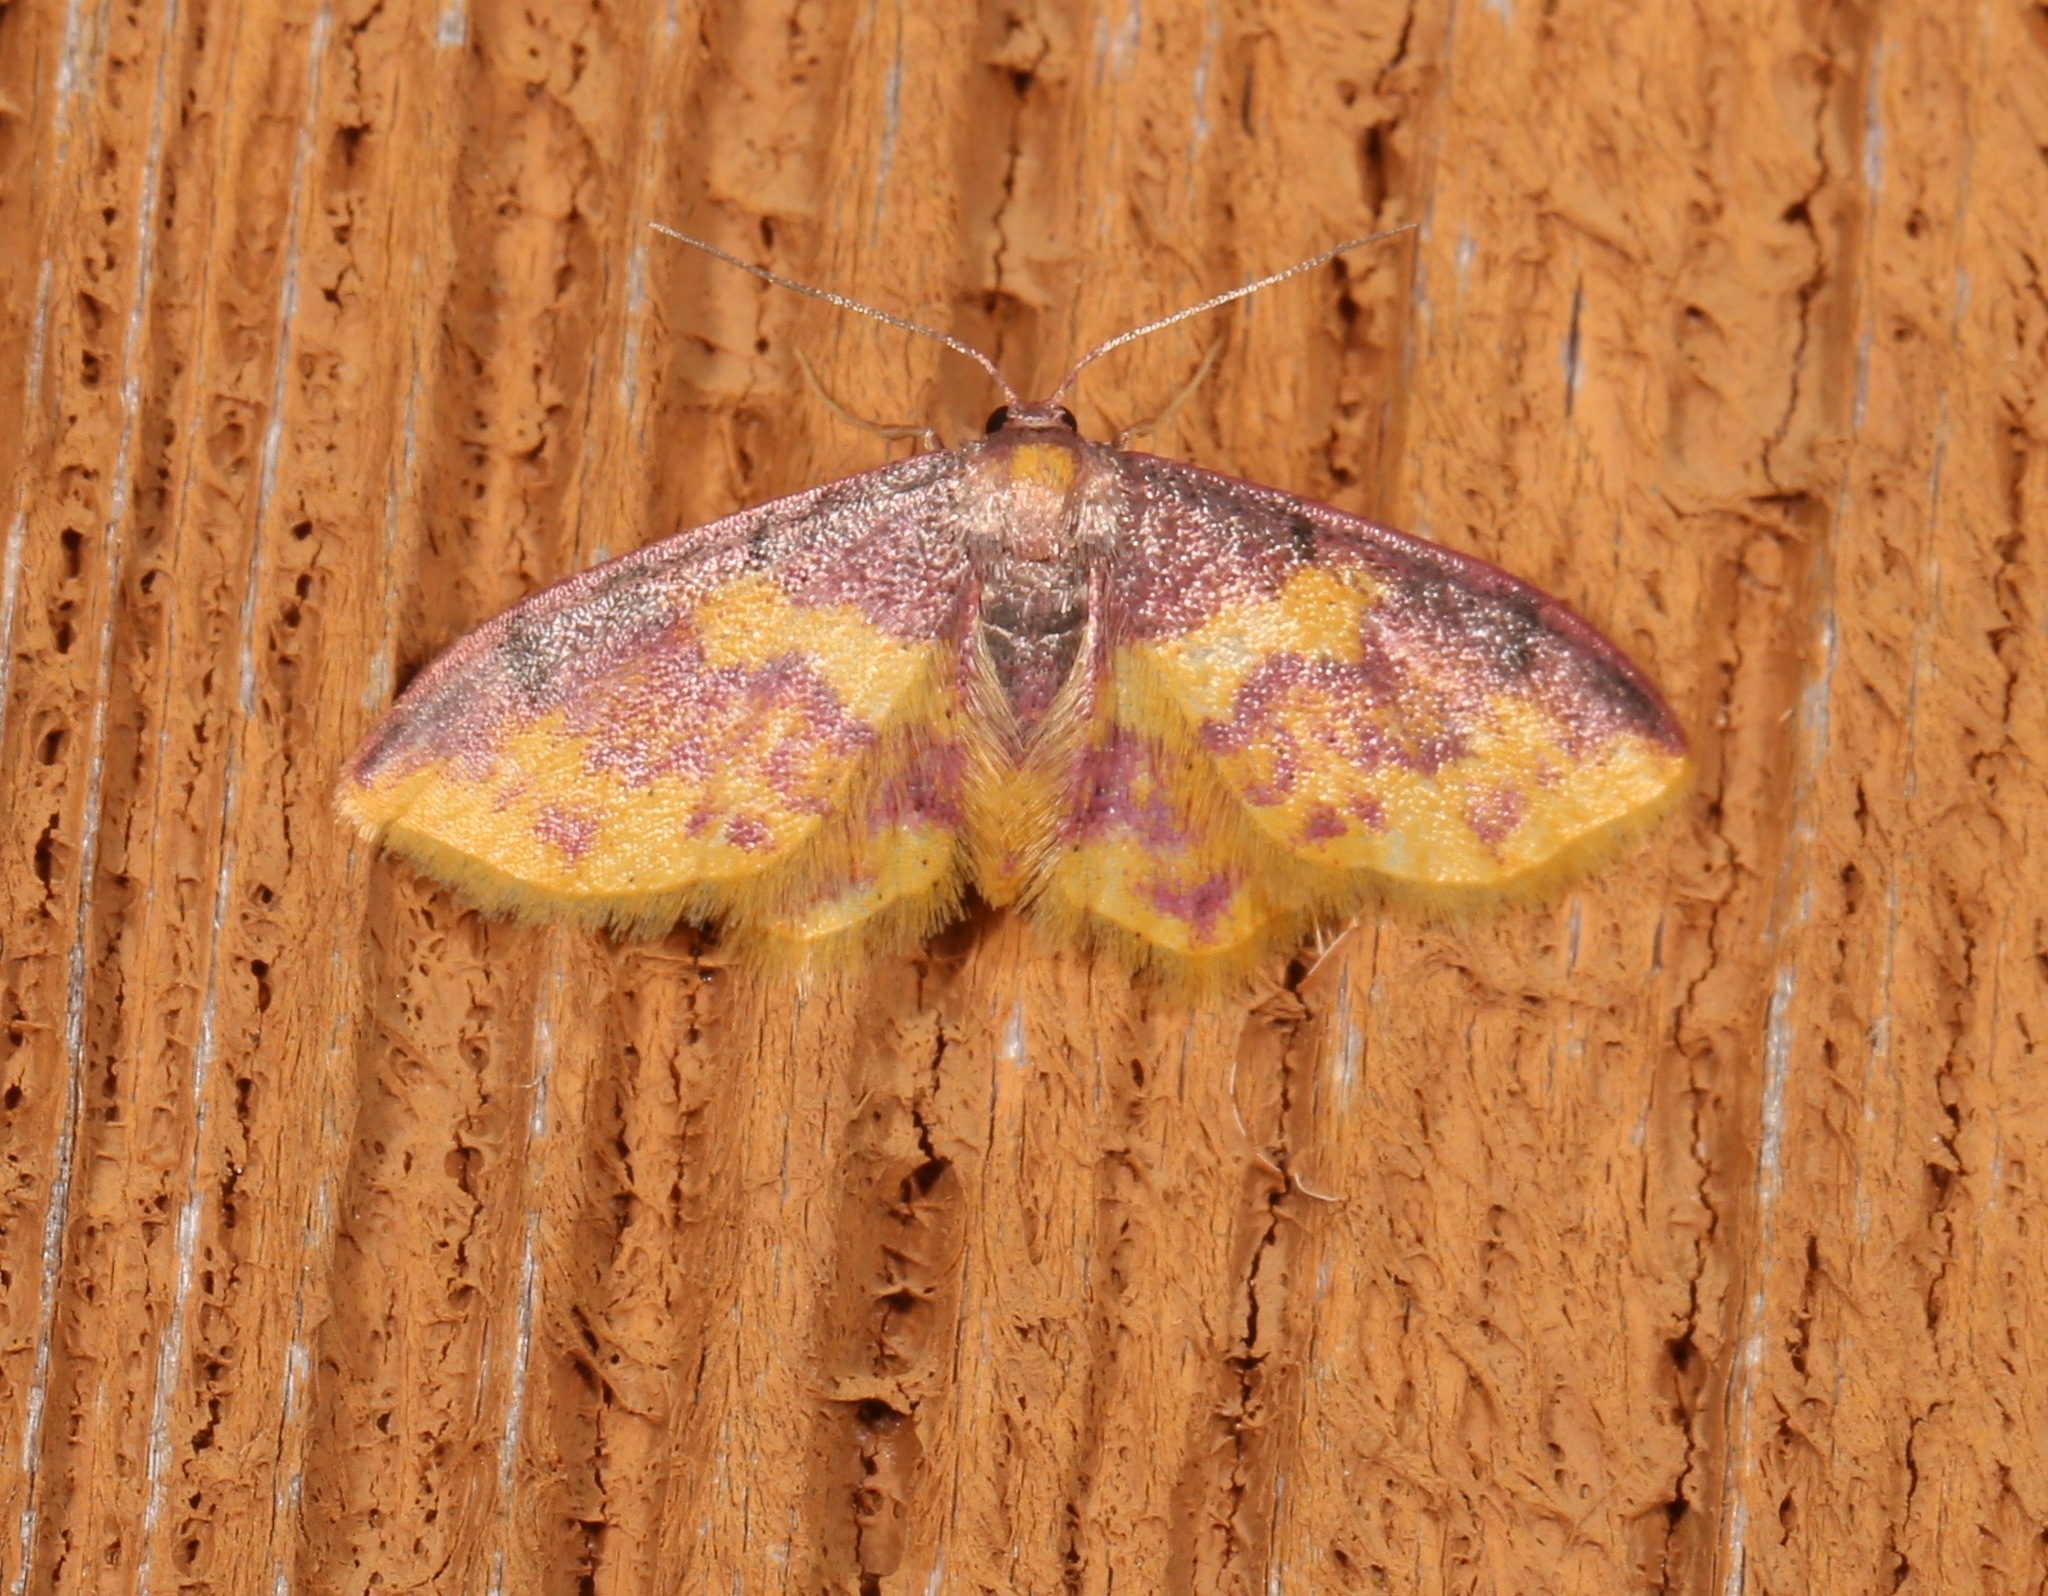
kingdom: Animalia
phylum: Arthropoda
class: Insecta
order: Lepidoptera
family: Geometridae
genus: Lophosis
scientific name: Lophosis labeculata
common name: Stained lophosis moth
